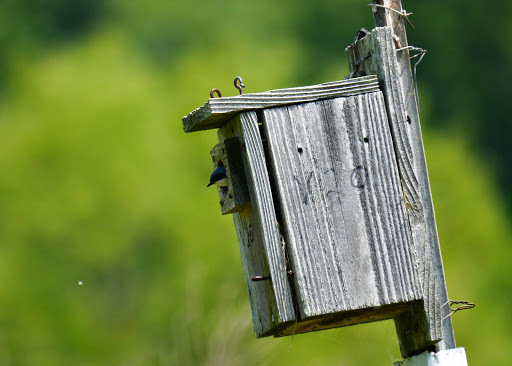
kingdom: Animalia
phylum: Chordata
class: Aves
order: Passeriformes
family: Hirundinidae
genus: Tachycineta
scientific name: Tachycineta bicolor
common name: Tree swallow
